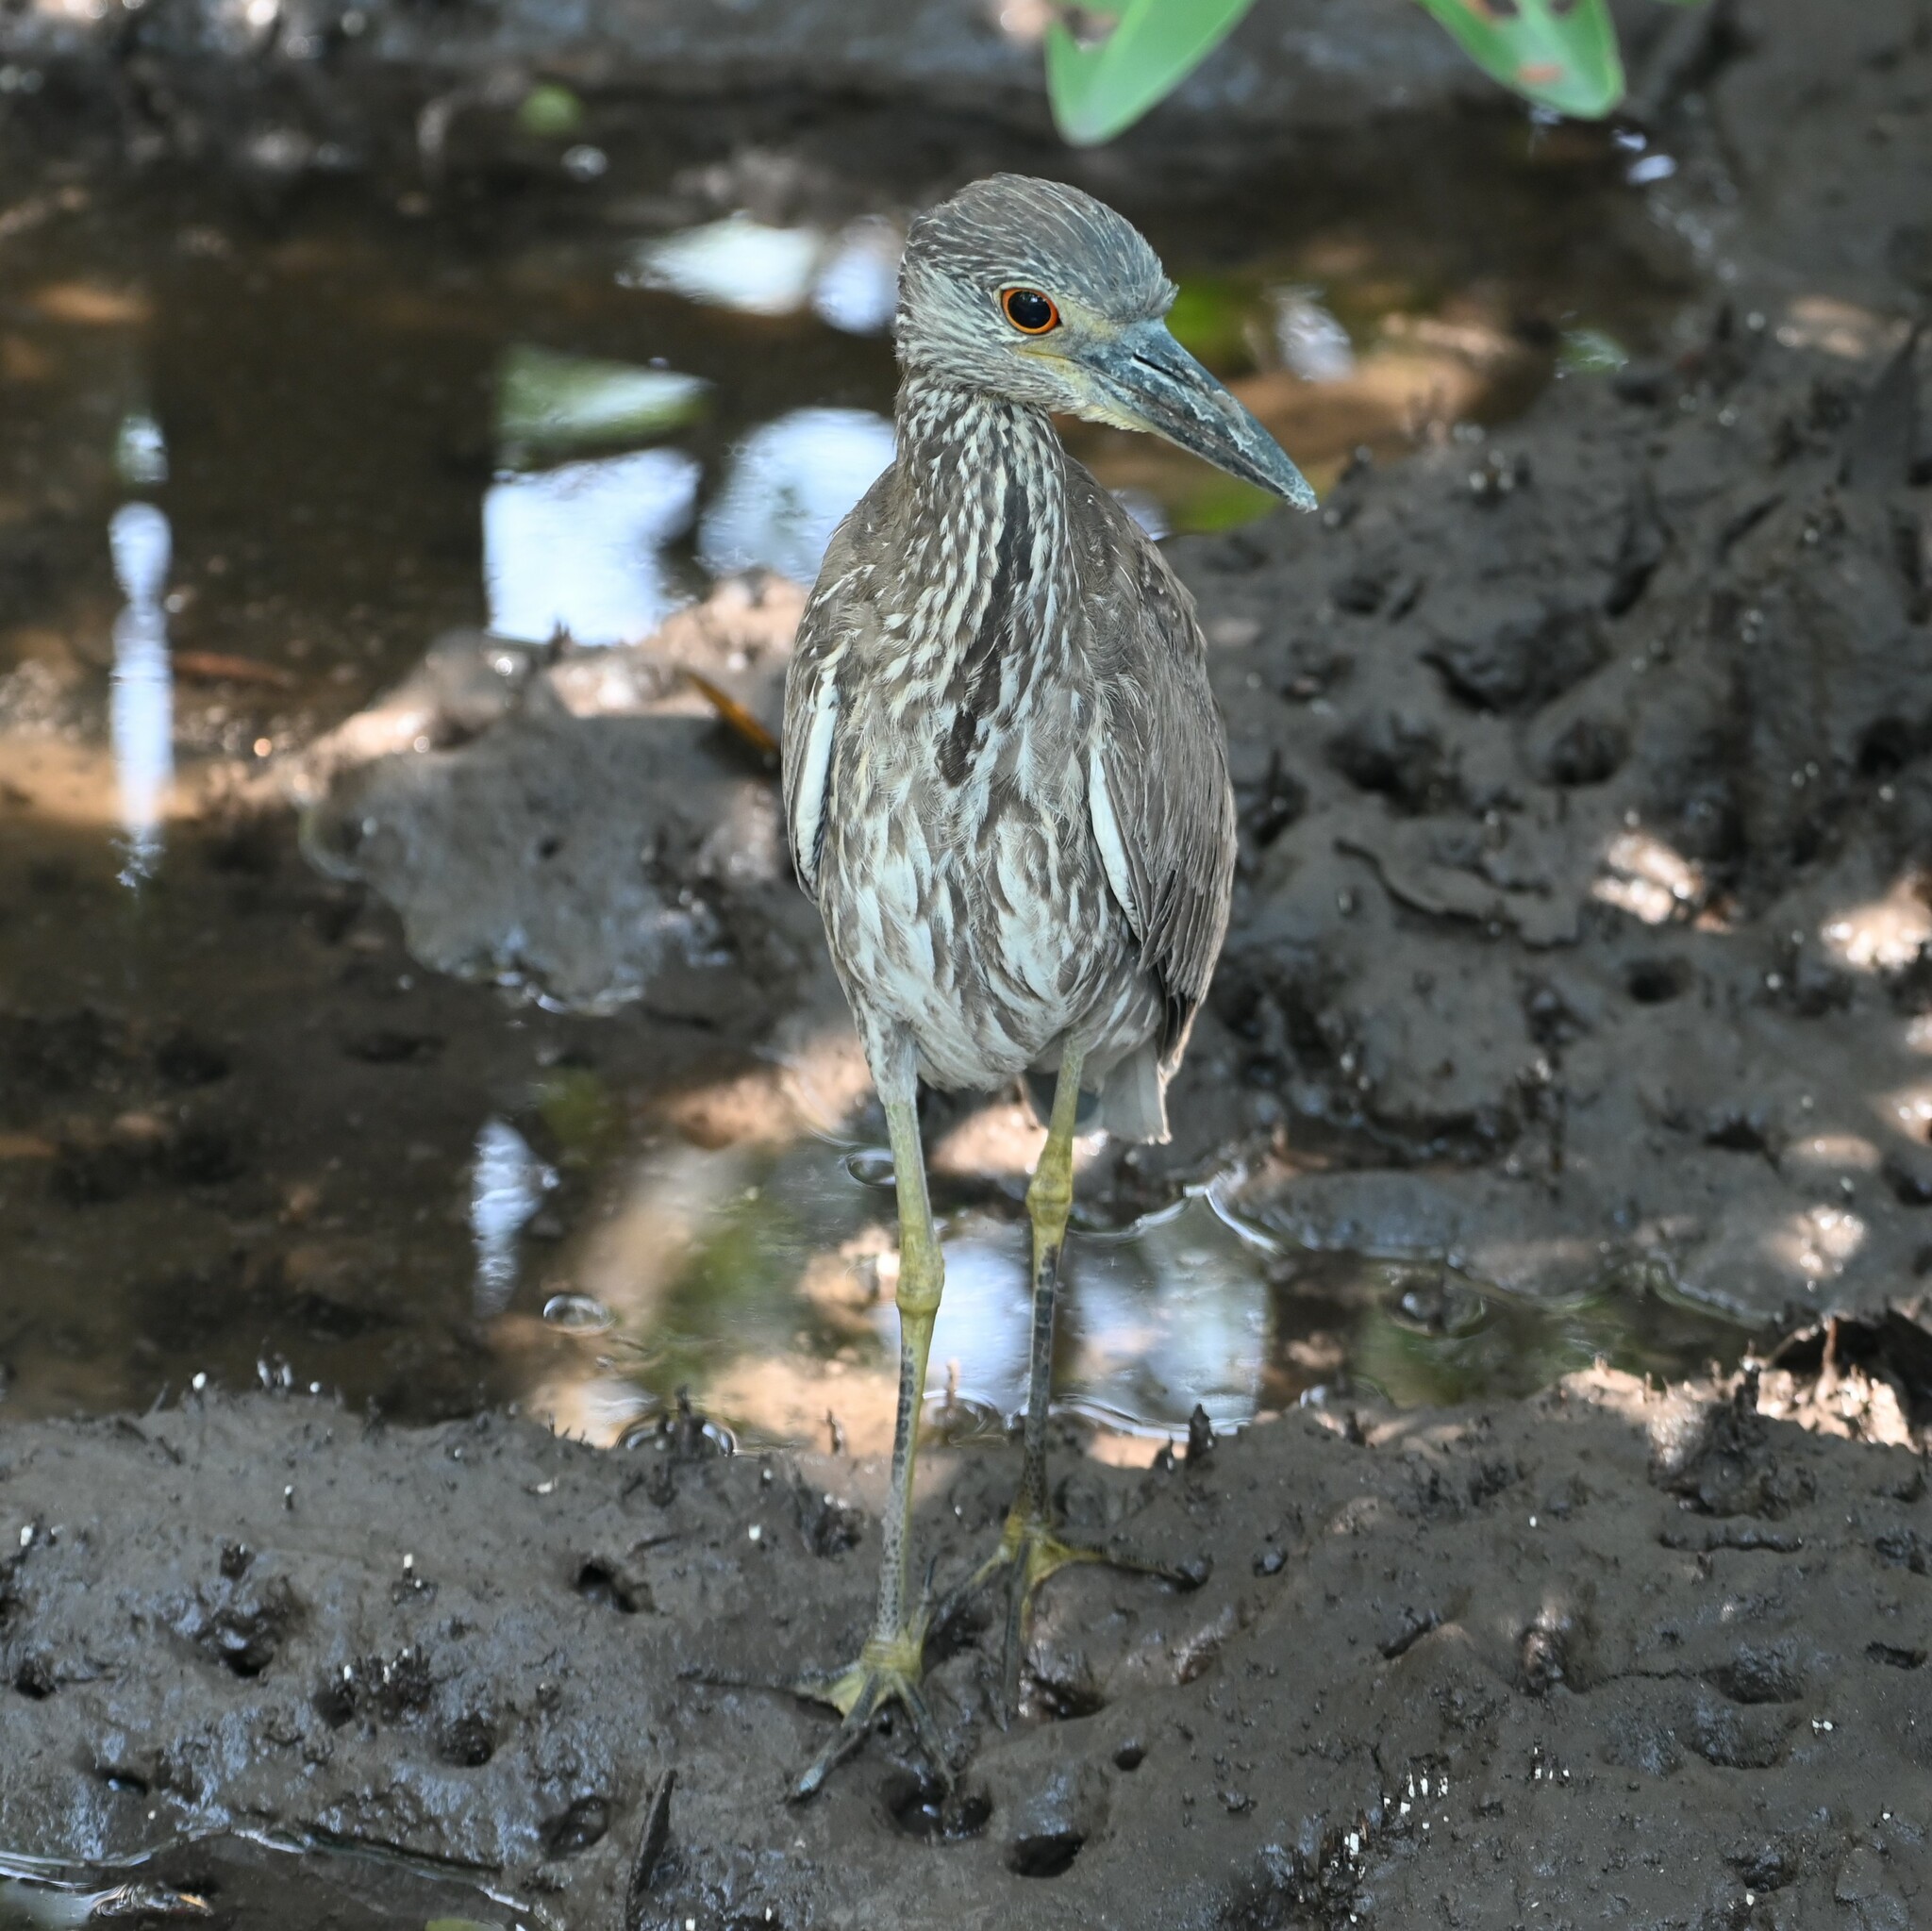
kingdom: Animalia
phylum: Chordata
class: Aves
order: Pelecaniformes
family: Ardeidae
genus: Nyctanassa
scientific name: Nyctanassa violacea
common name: Yellow-crowned night heron
